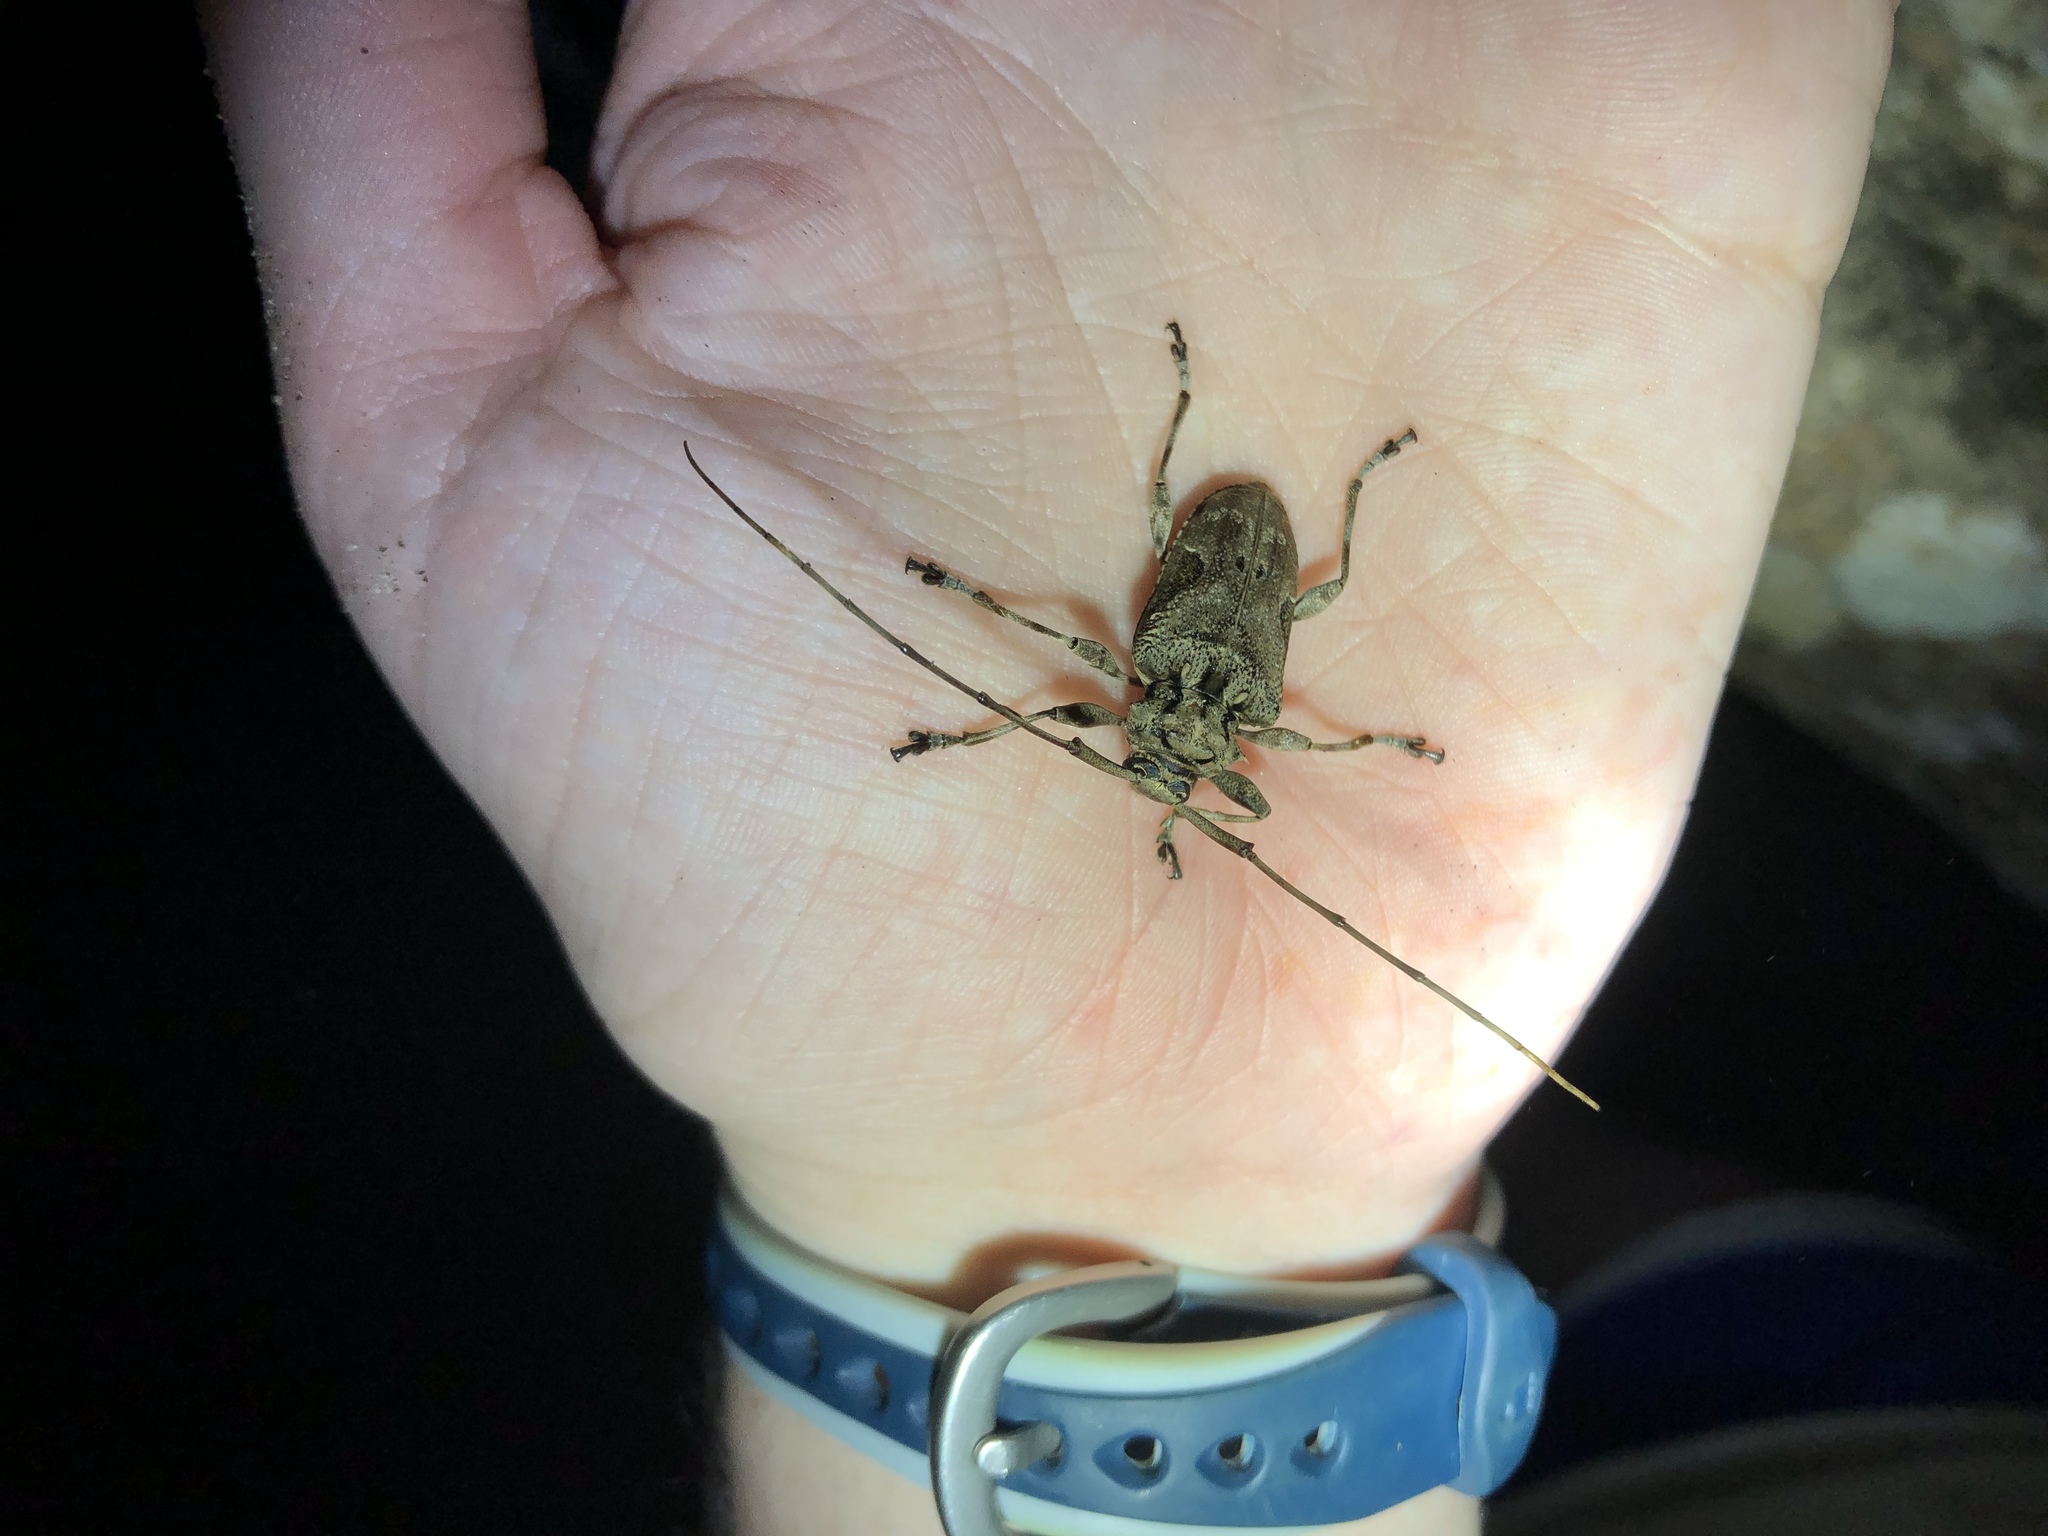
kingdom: Animalia
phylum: Arthropoda
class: Insecta
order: Coleoptera
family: Cerambycidae
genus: Lagocheirus
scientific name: Lagocheirus araneiformis
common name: Beetle
